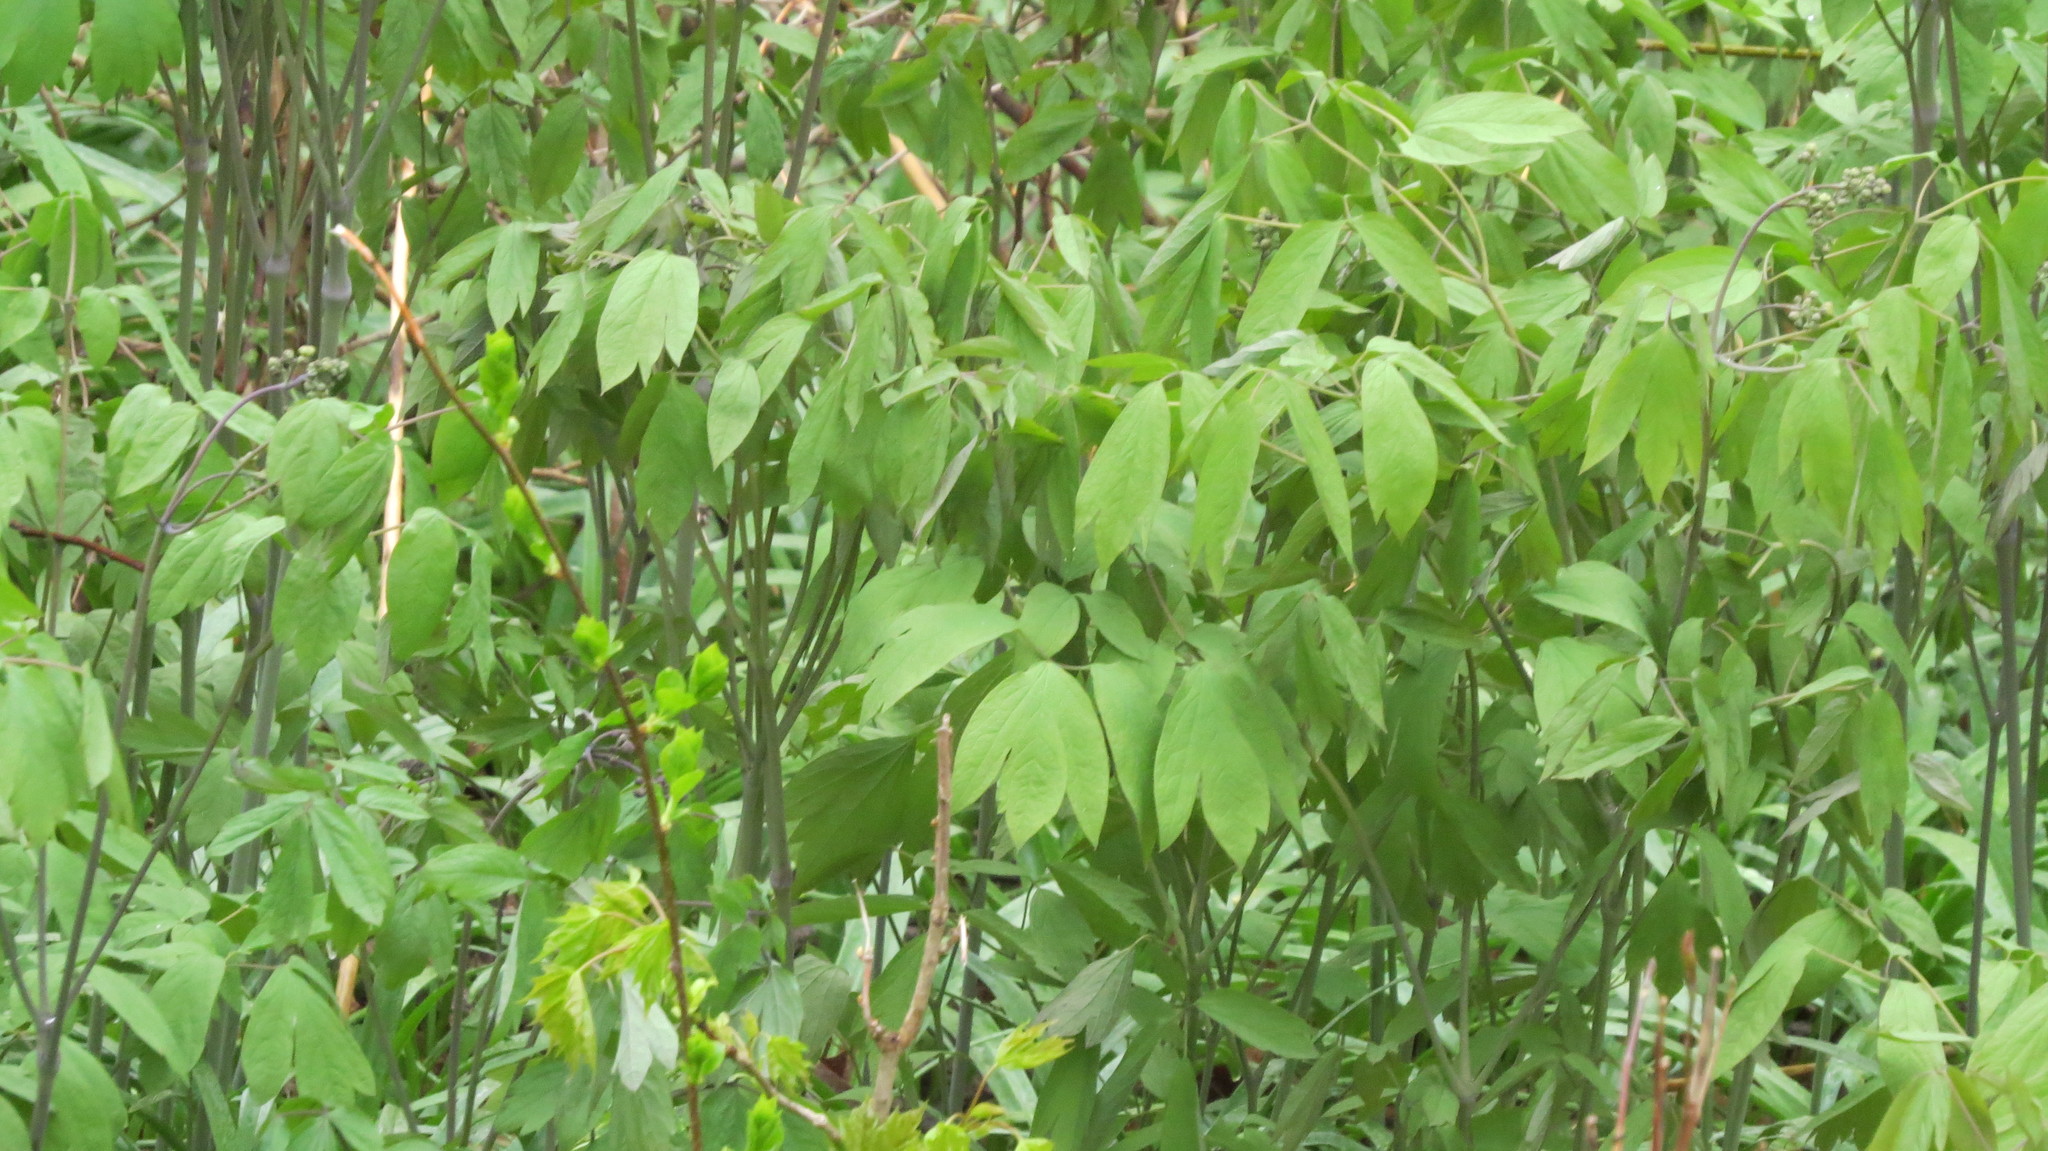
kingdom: Plantae
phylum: Tracheophyta
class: Magnoliopsida
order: Ranunculales
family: Berberidaceae
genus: Caulophyllum
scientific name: Caulophyllum thalictroides
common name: Blue cohosh
